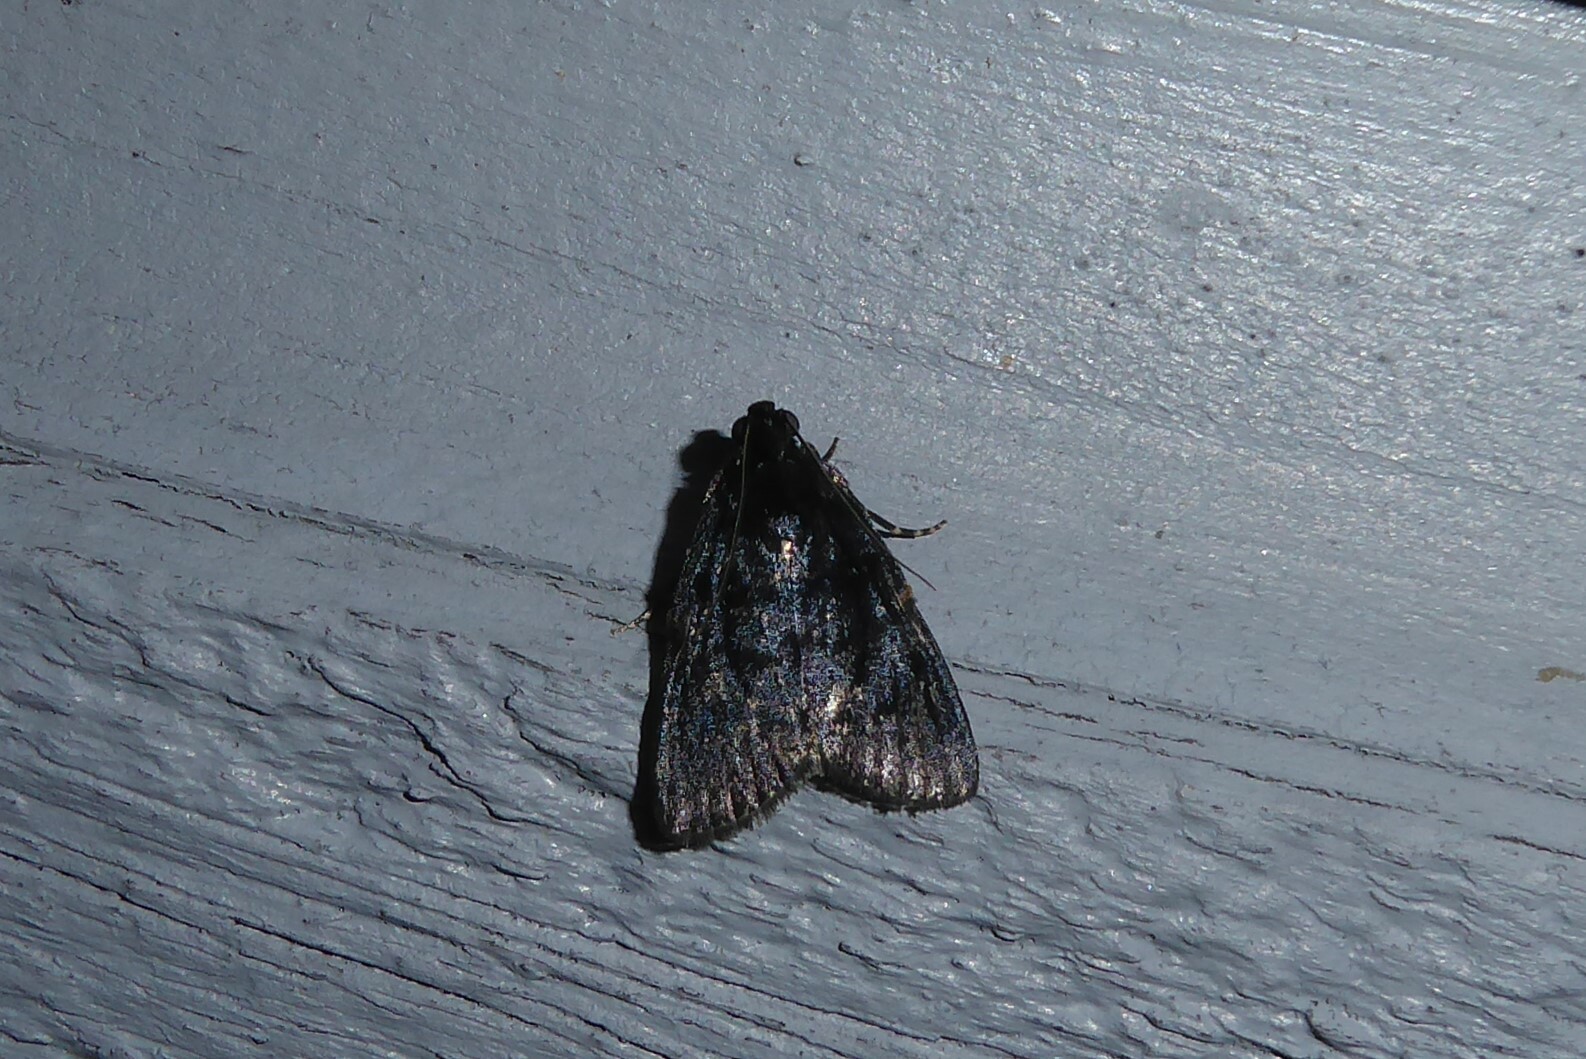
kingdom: Animalia
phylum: Arthropoda
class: Insecta
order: Lepidoptera
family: Pyralidae
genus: Stericta
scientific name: Stericta carbonalis
